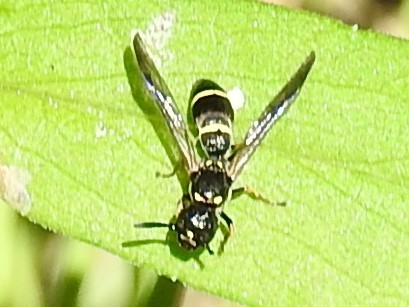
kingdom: Animalia
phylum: Arthropoda
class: Insecta
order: Hymenoptera
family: Eumenidae
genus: Symmorphus
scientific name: Symmorphus
